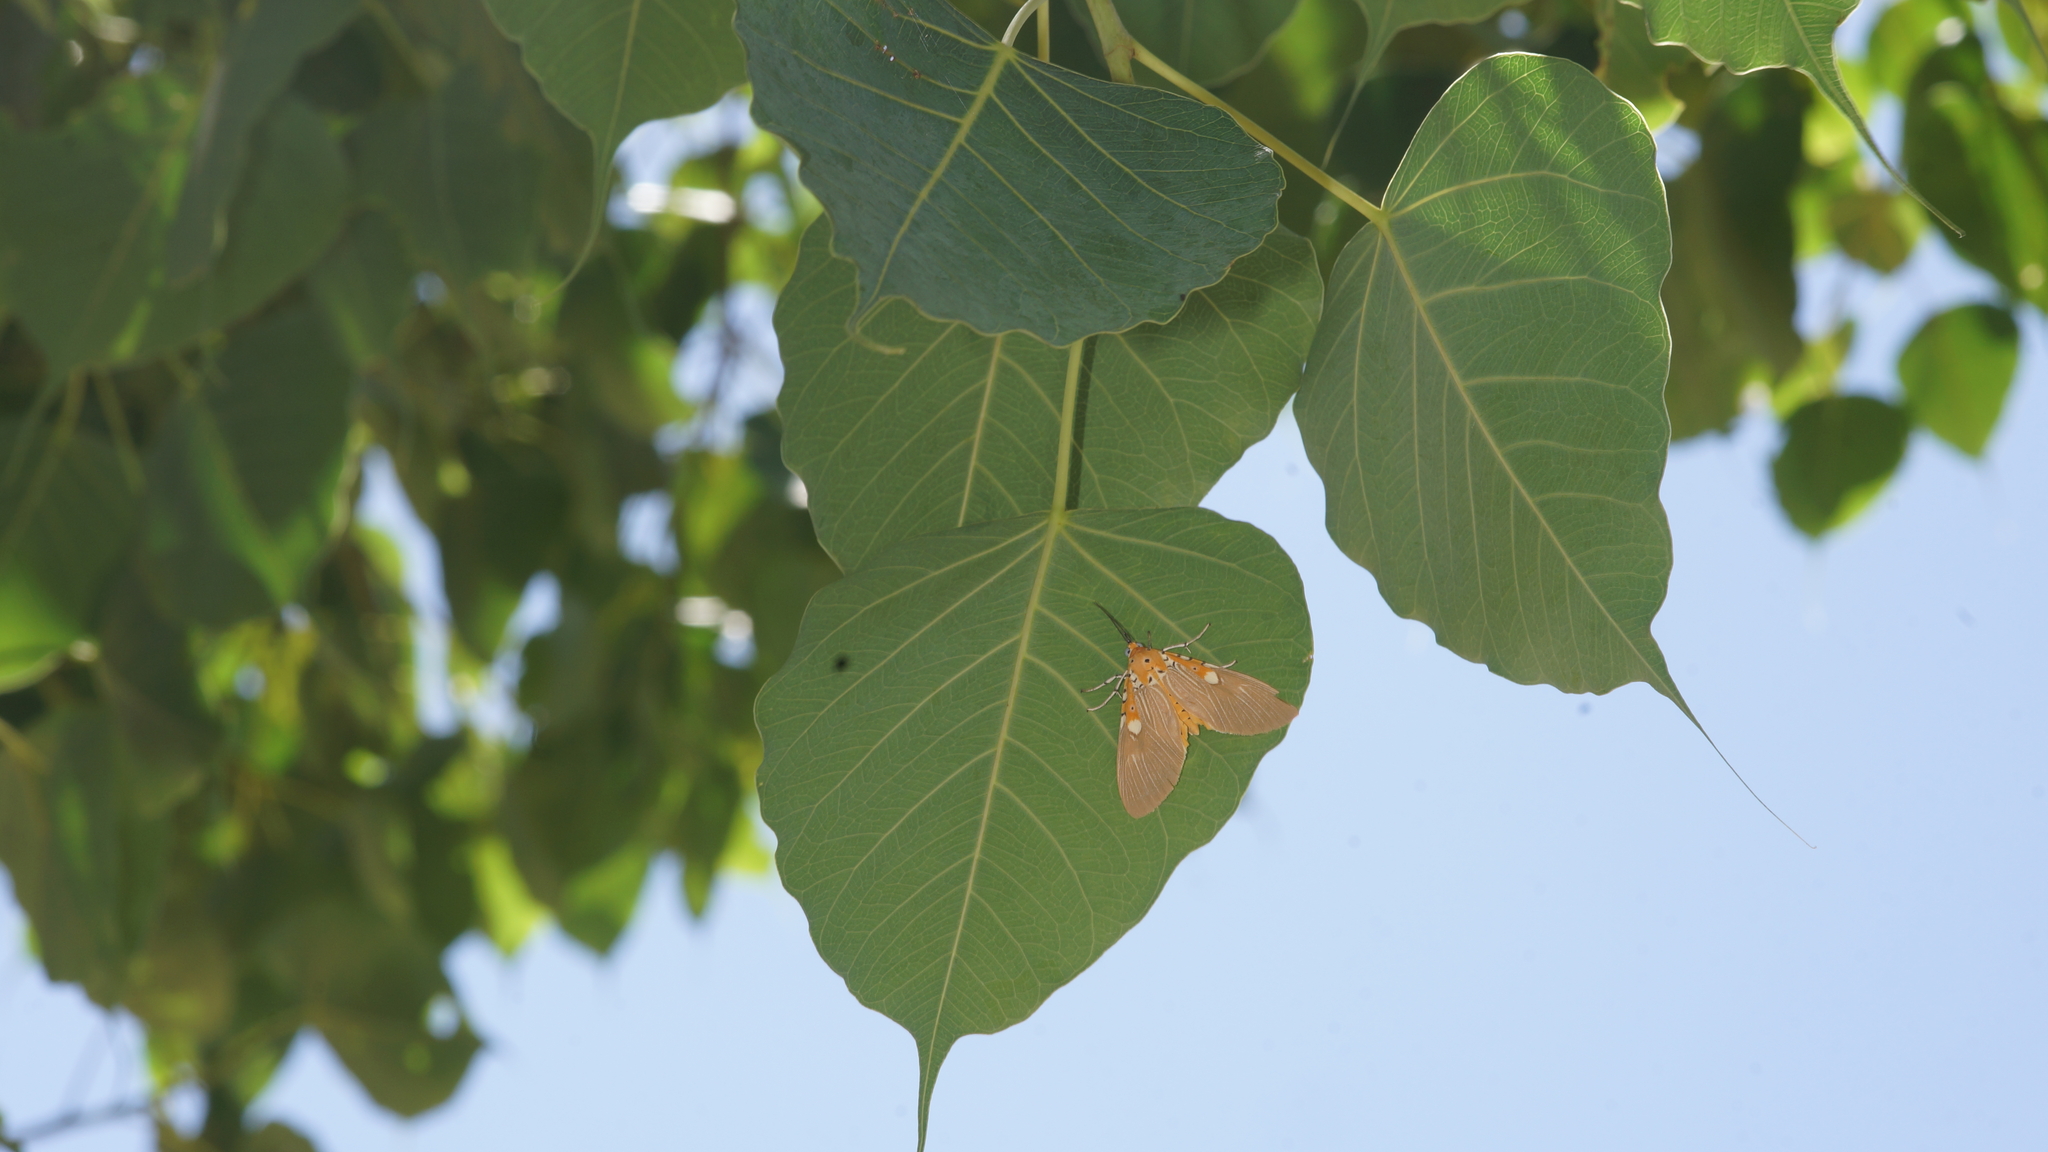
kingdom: Animalia
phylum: Arthropoda
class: Insecta
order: Lepidoptera
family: Erebidae
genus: Asota
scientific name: Asota ficus
